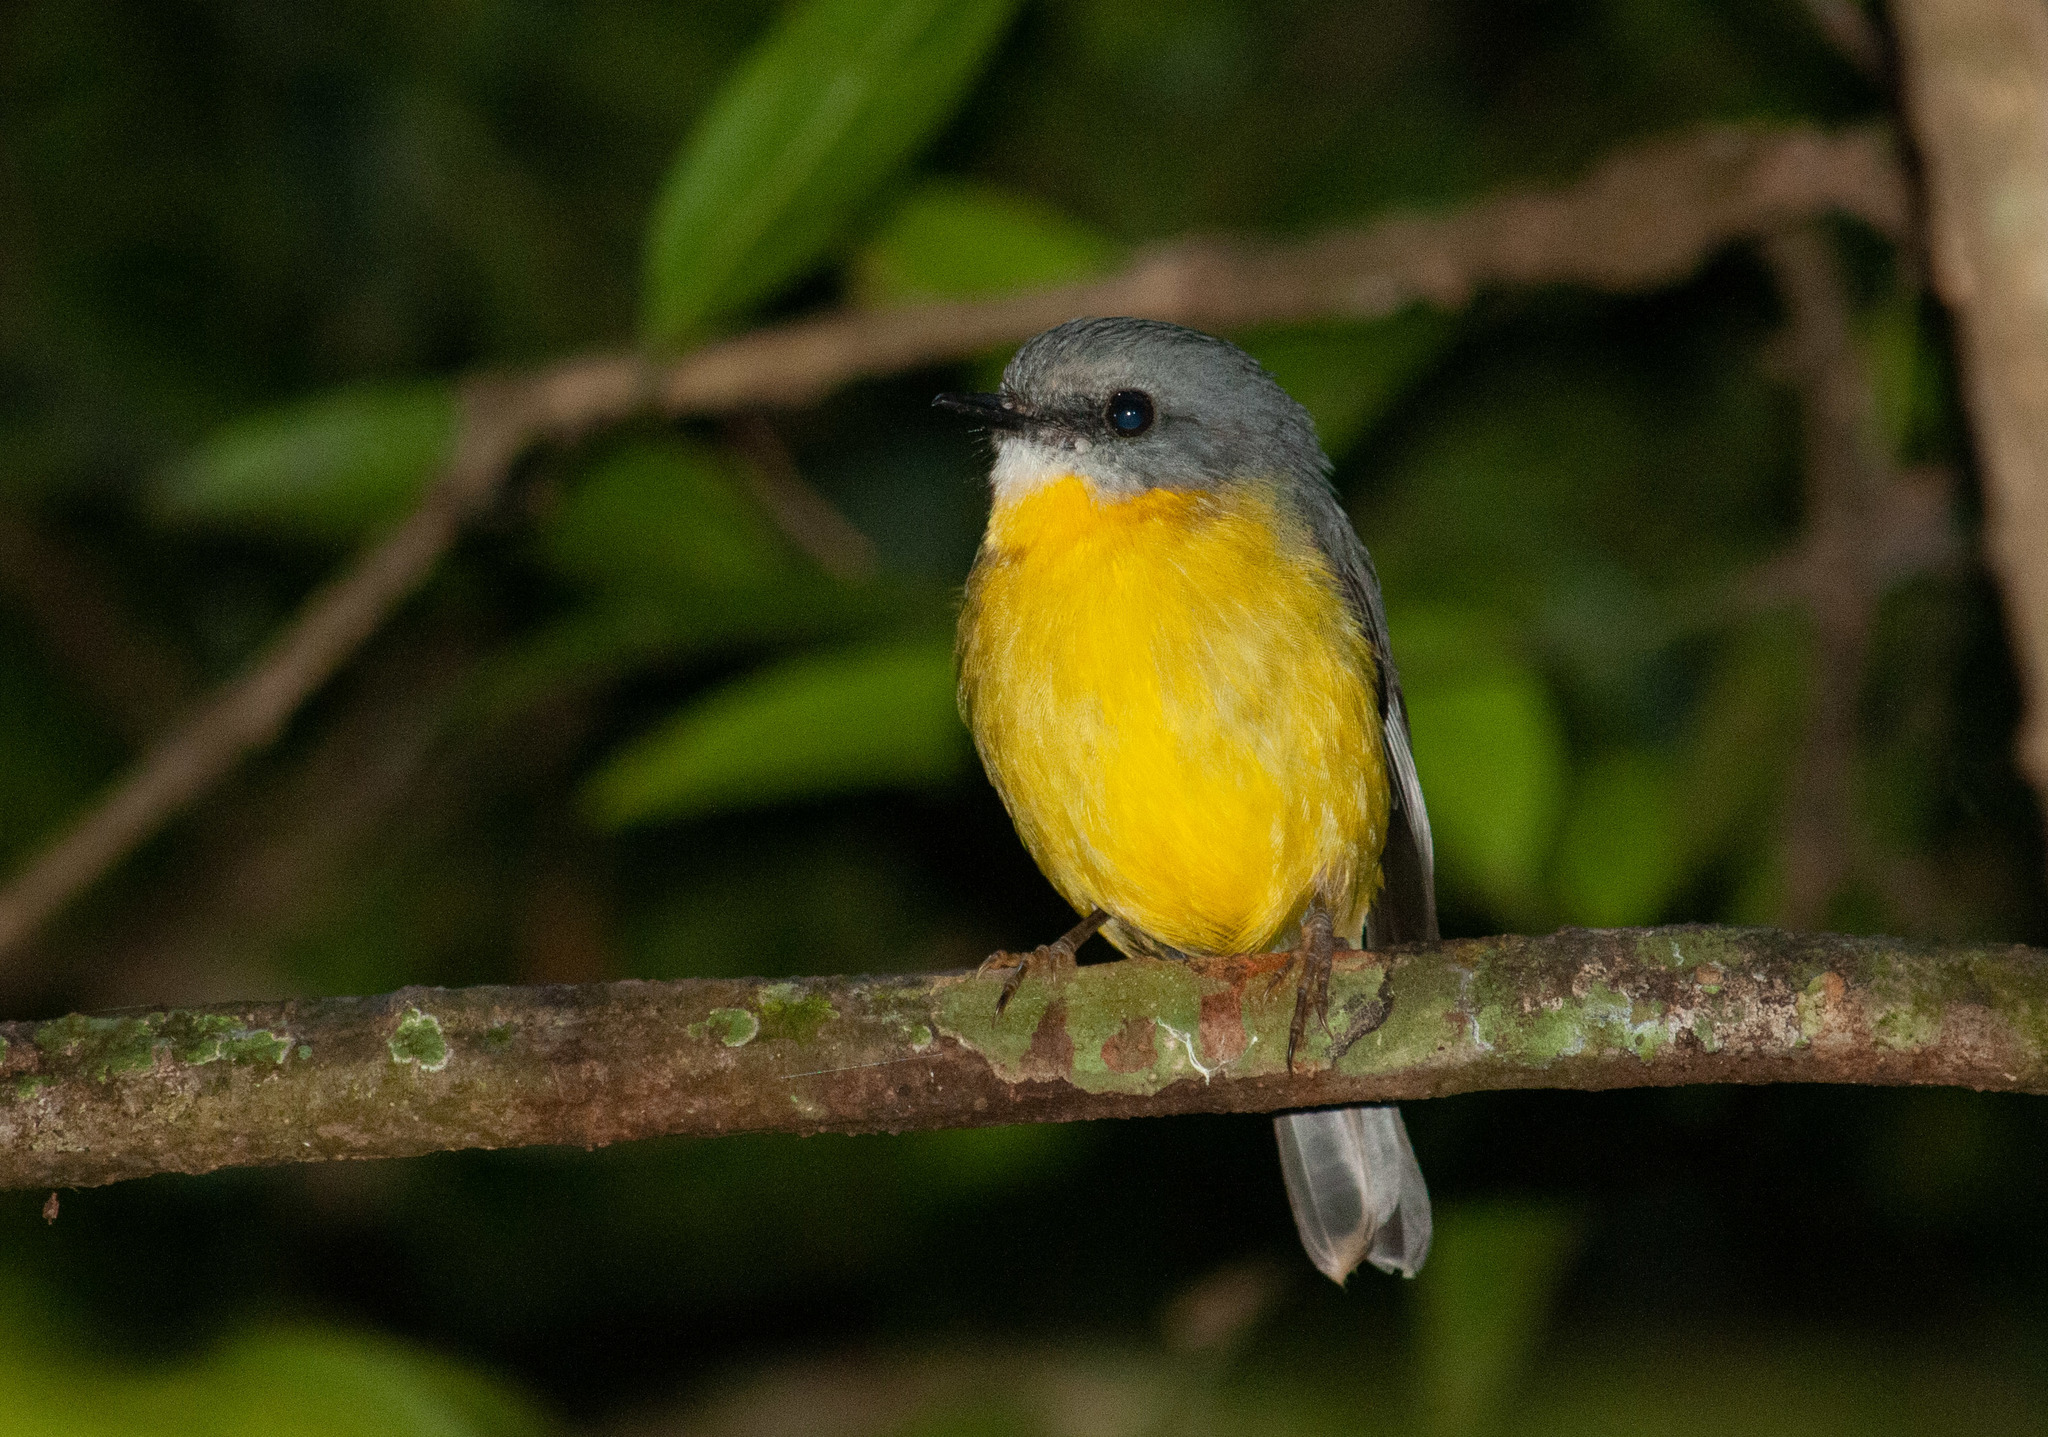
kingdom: Animalia
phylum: Chordata
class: Aves
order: Passeriformes
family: Petroicidae
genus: Eopsaltria
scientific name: Eopsaltria australis
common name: Eastern yellow robin
